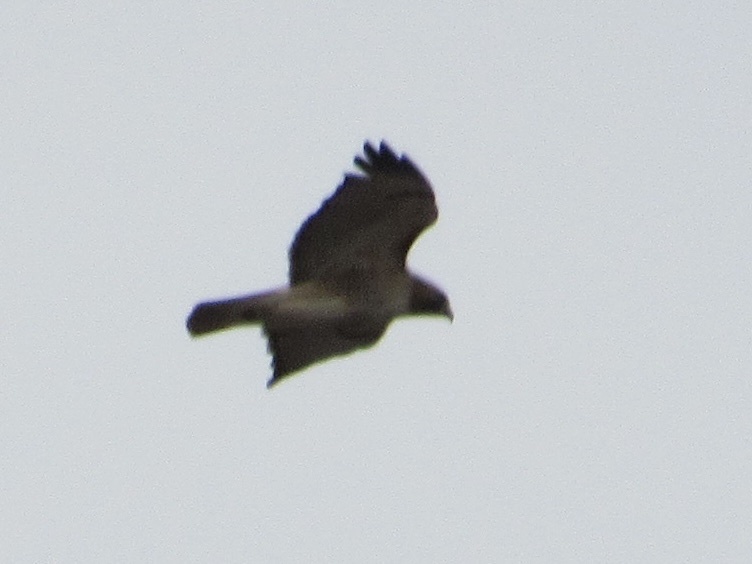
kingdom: Animalia
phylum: Chordata
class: Aves
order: Accipitriformes
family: Accipitridae
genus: Buteo
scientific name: Buteo jamaicensis
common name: Red-tailed hawk
